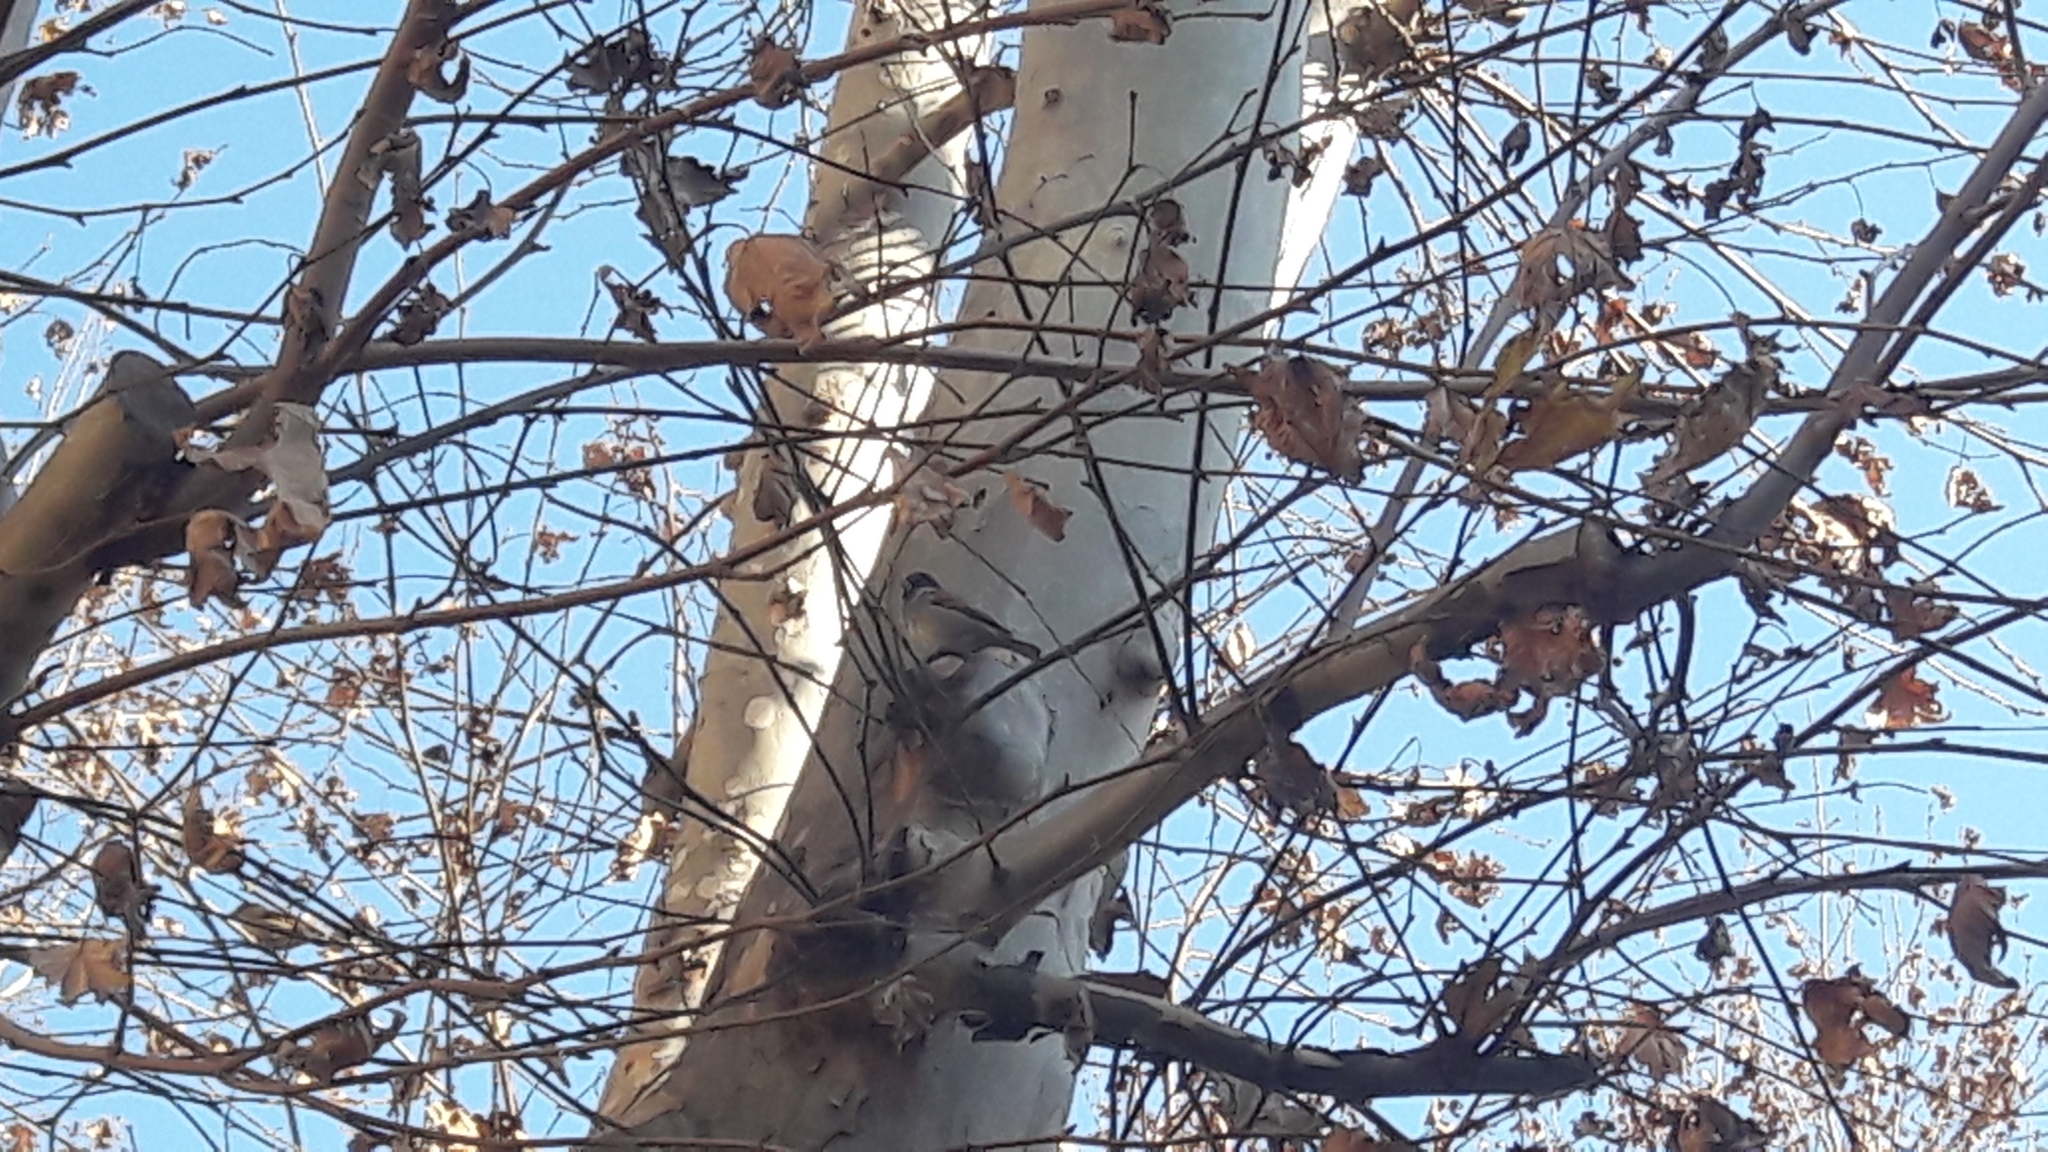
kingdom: Animalia
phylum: Chordata
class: Aves
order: Passeriformes
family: Passeridae
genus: Passer
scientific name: Passer italiae
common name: Italian sparrow
